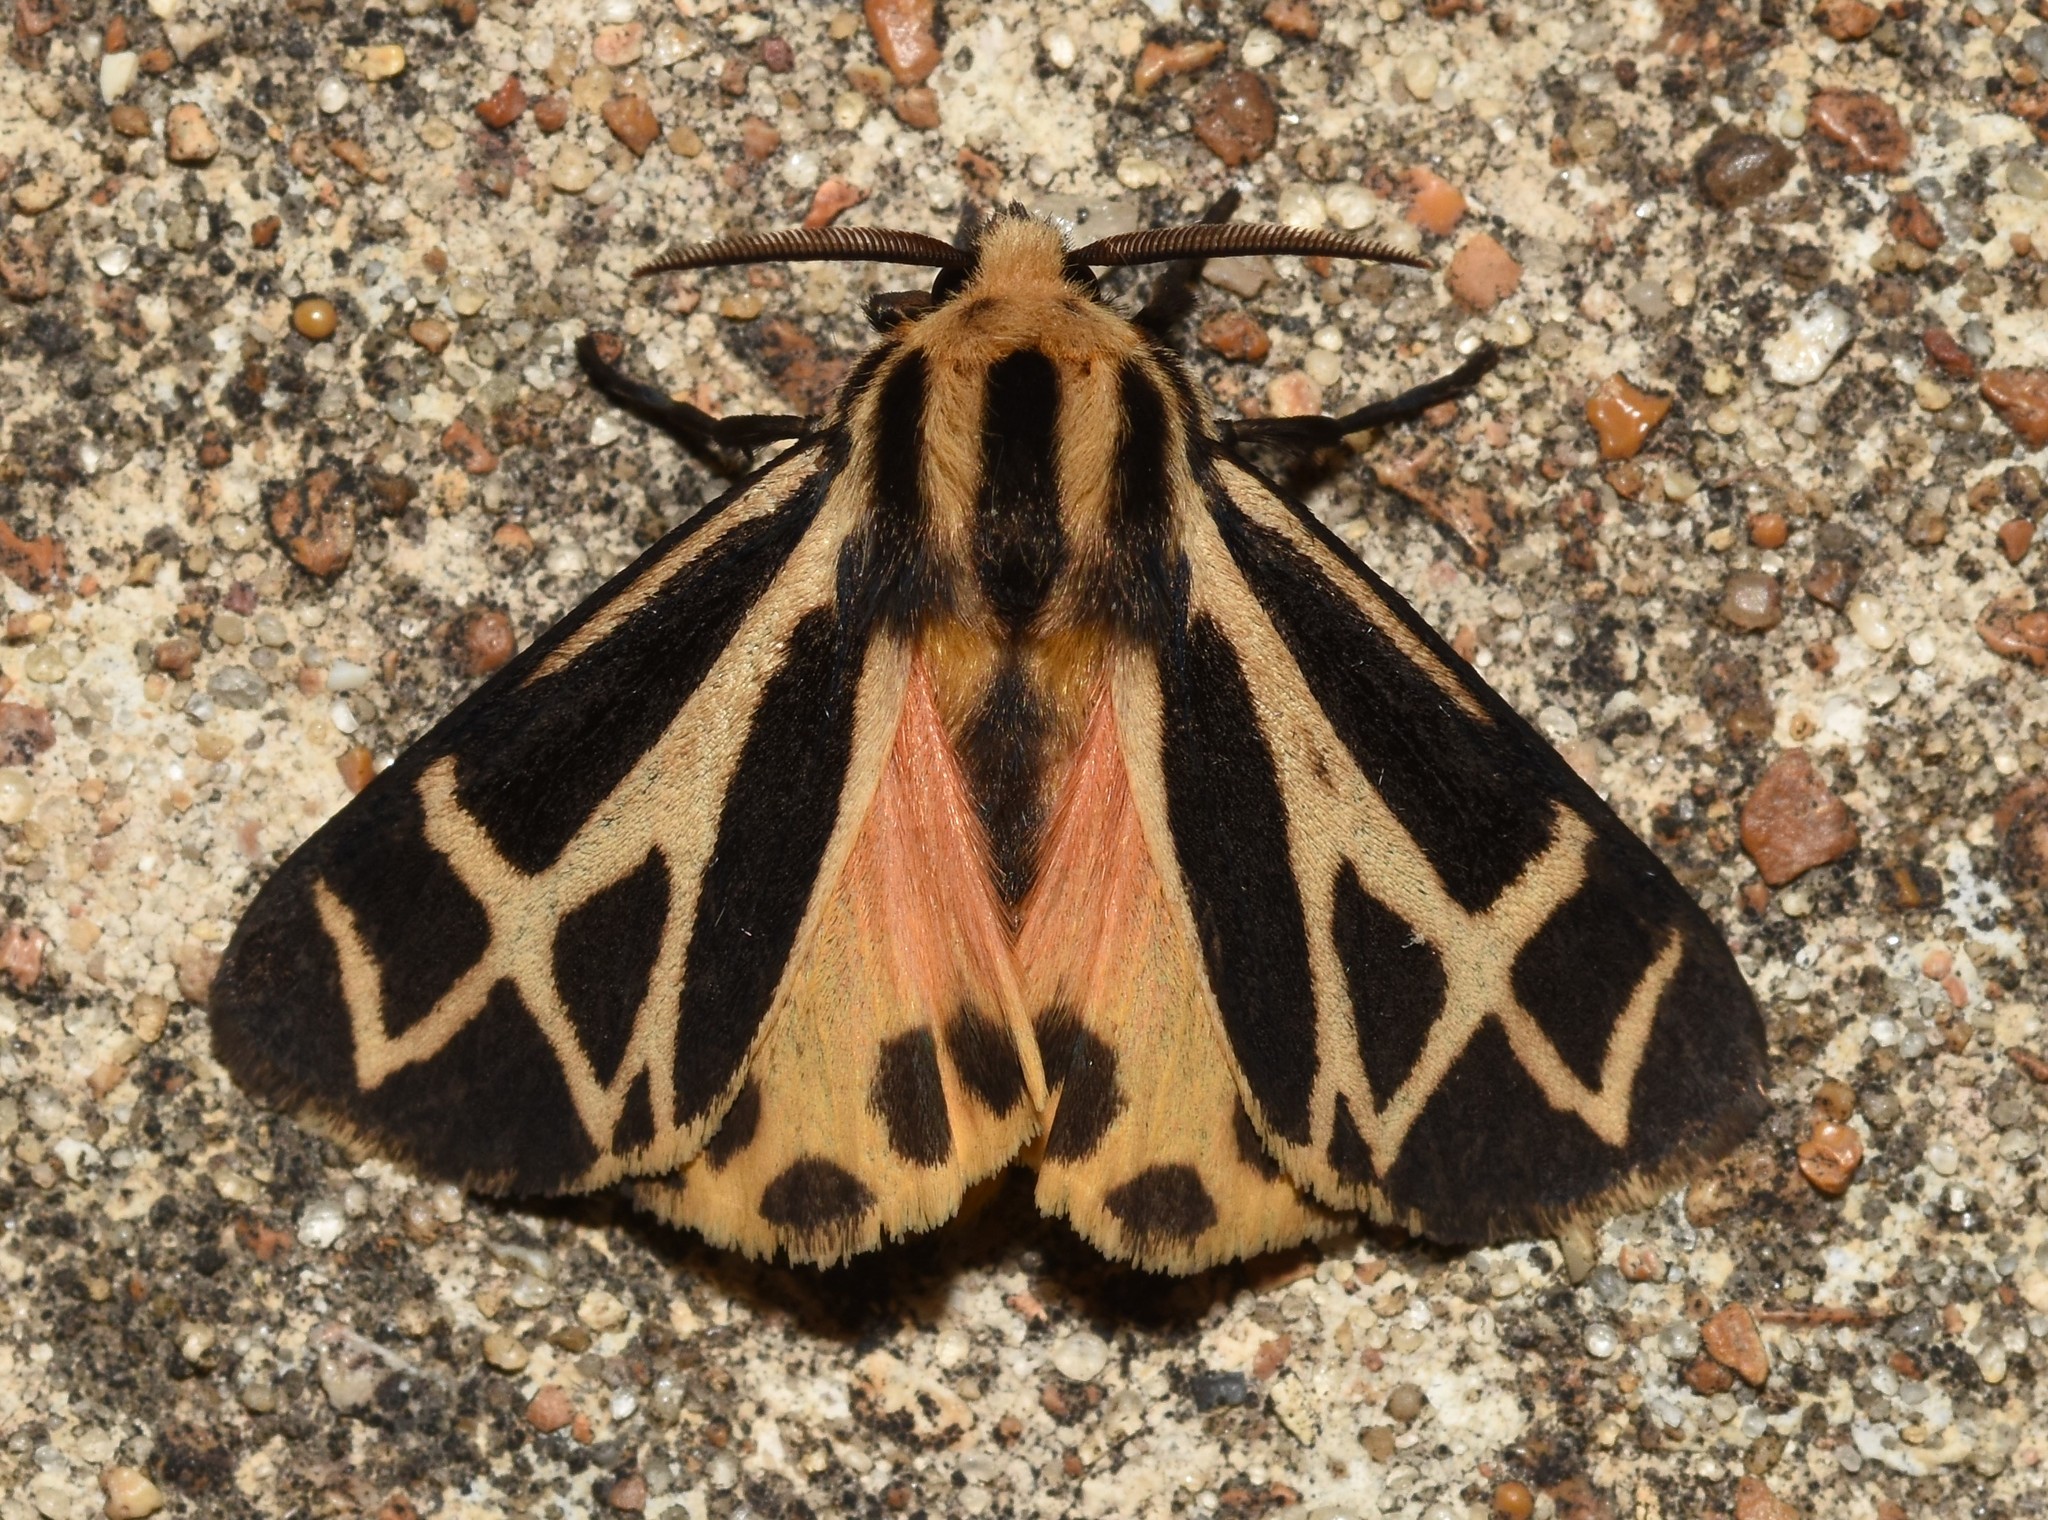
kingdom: Animalia
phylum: Arthropoda
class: Insecta
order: Lepidoptera
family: Erebidae
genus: Apantesis
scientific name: Apantesis carlotta
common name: Carlotta's tiger moth
